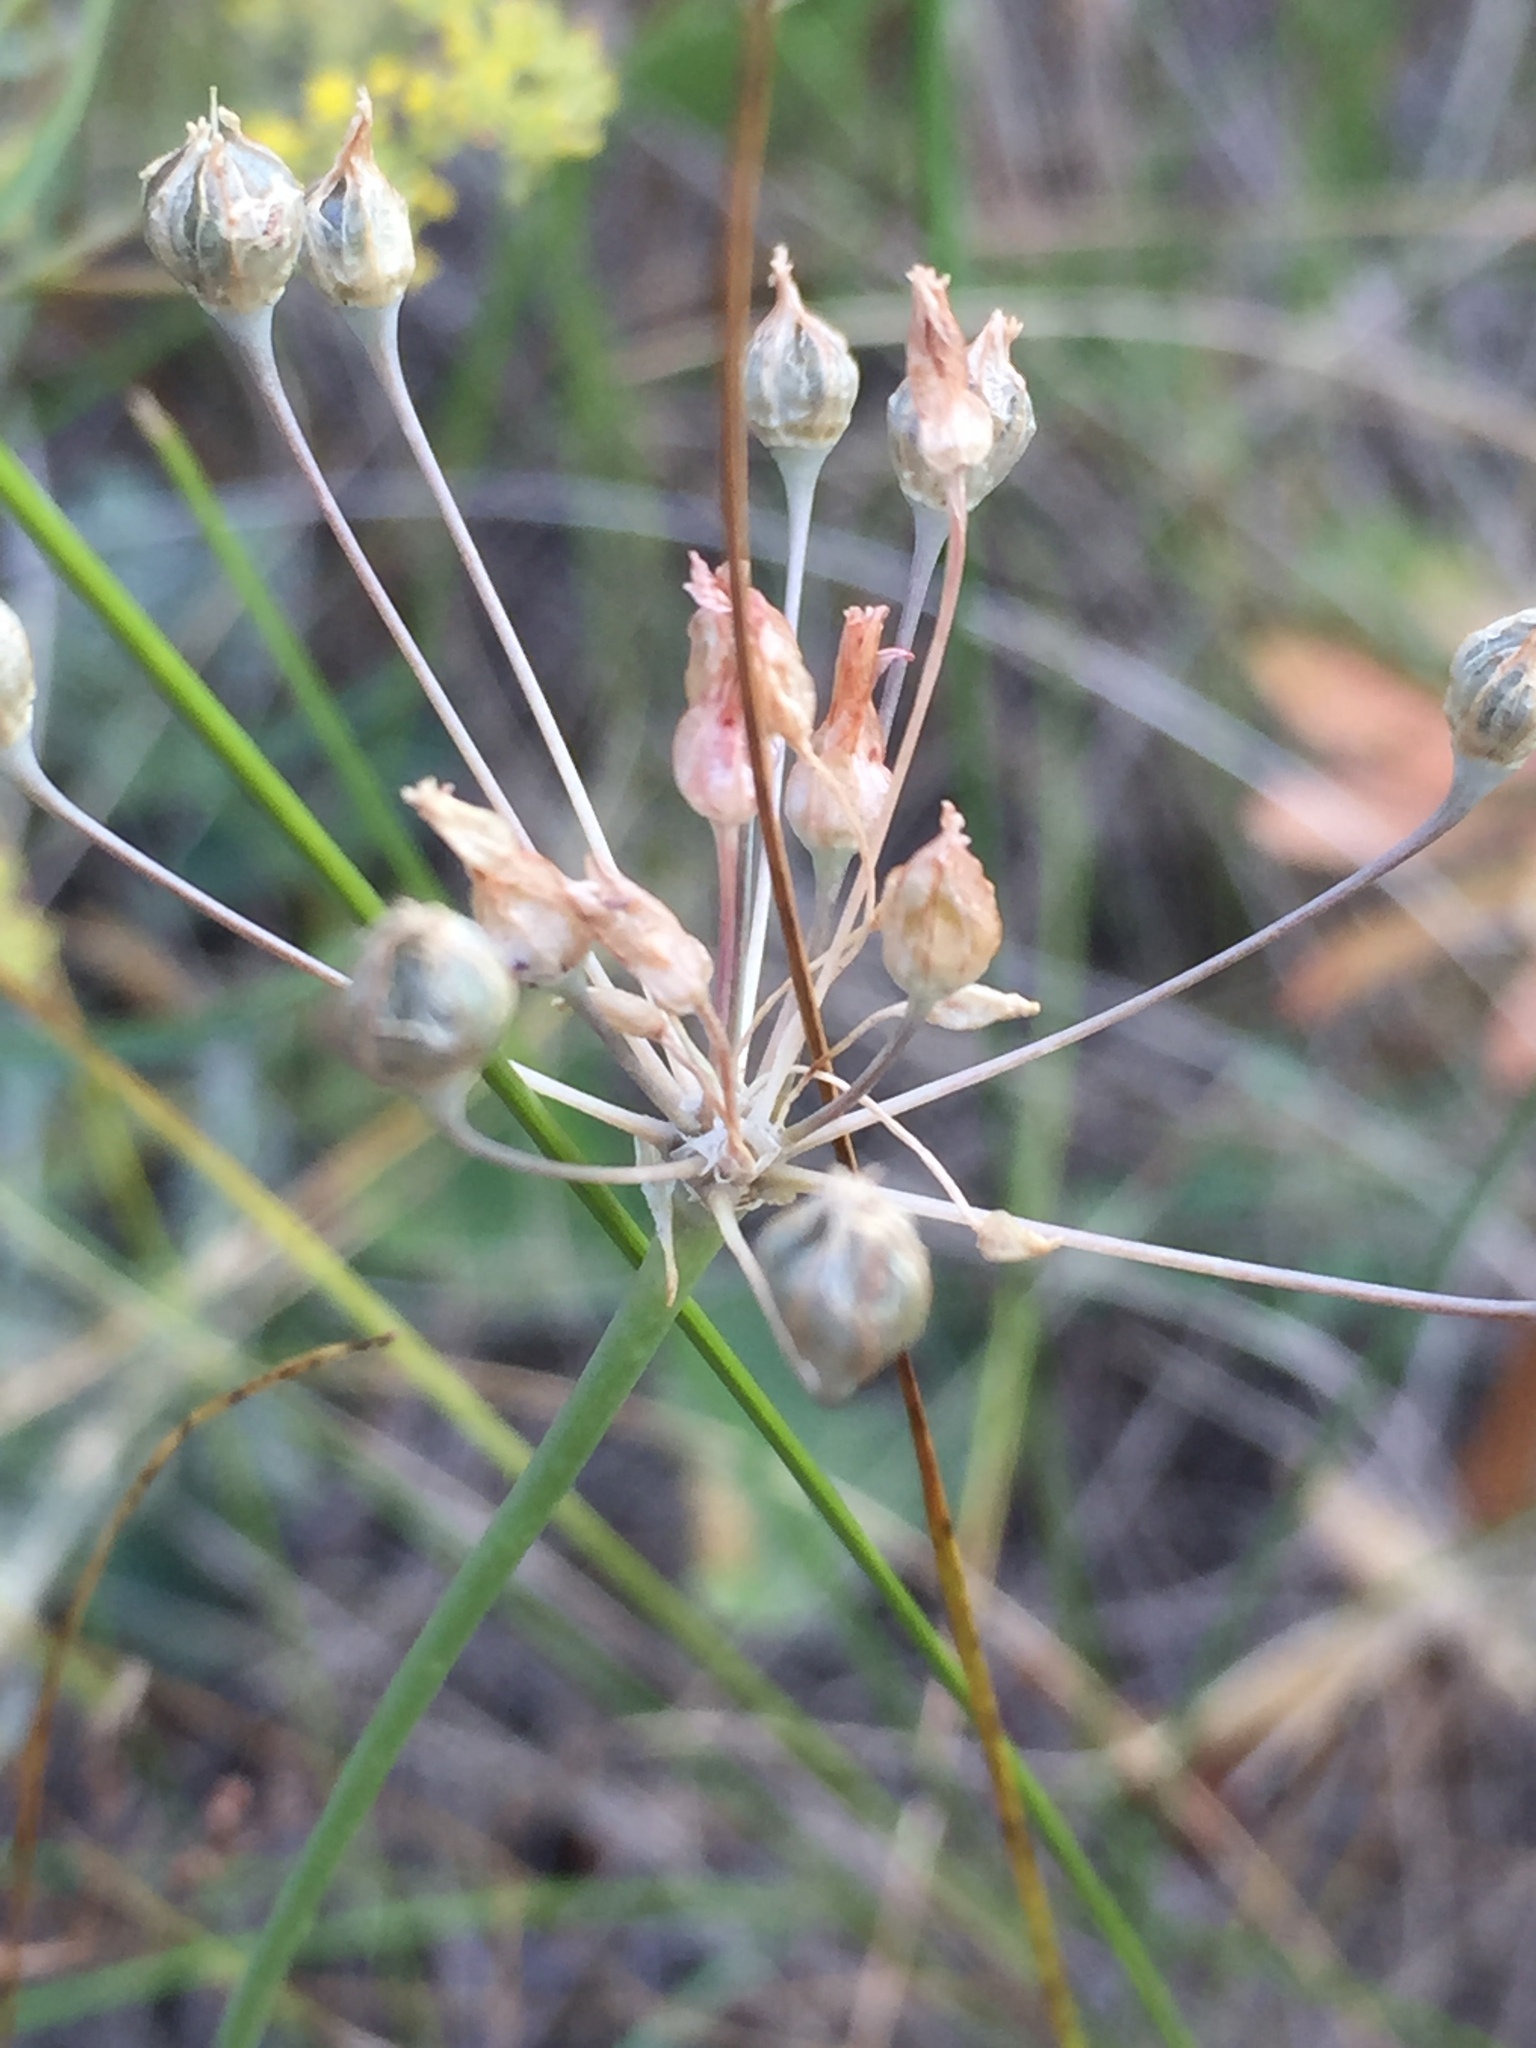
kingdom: Plantae
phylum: Tracheophyta
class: Liliopsida
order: Asparagales
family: Amaryllidaceae
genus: Allium
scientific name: Allium inaequale
